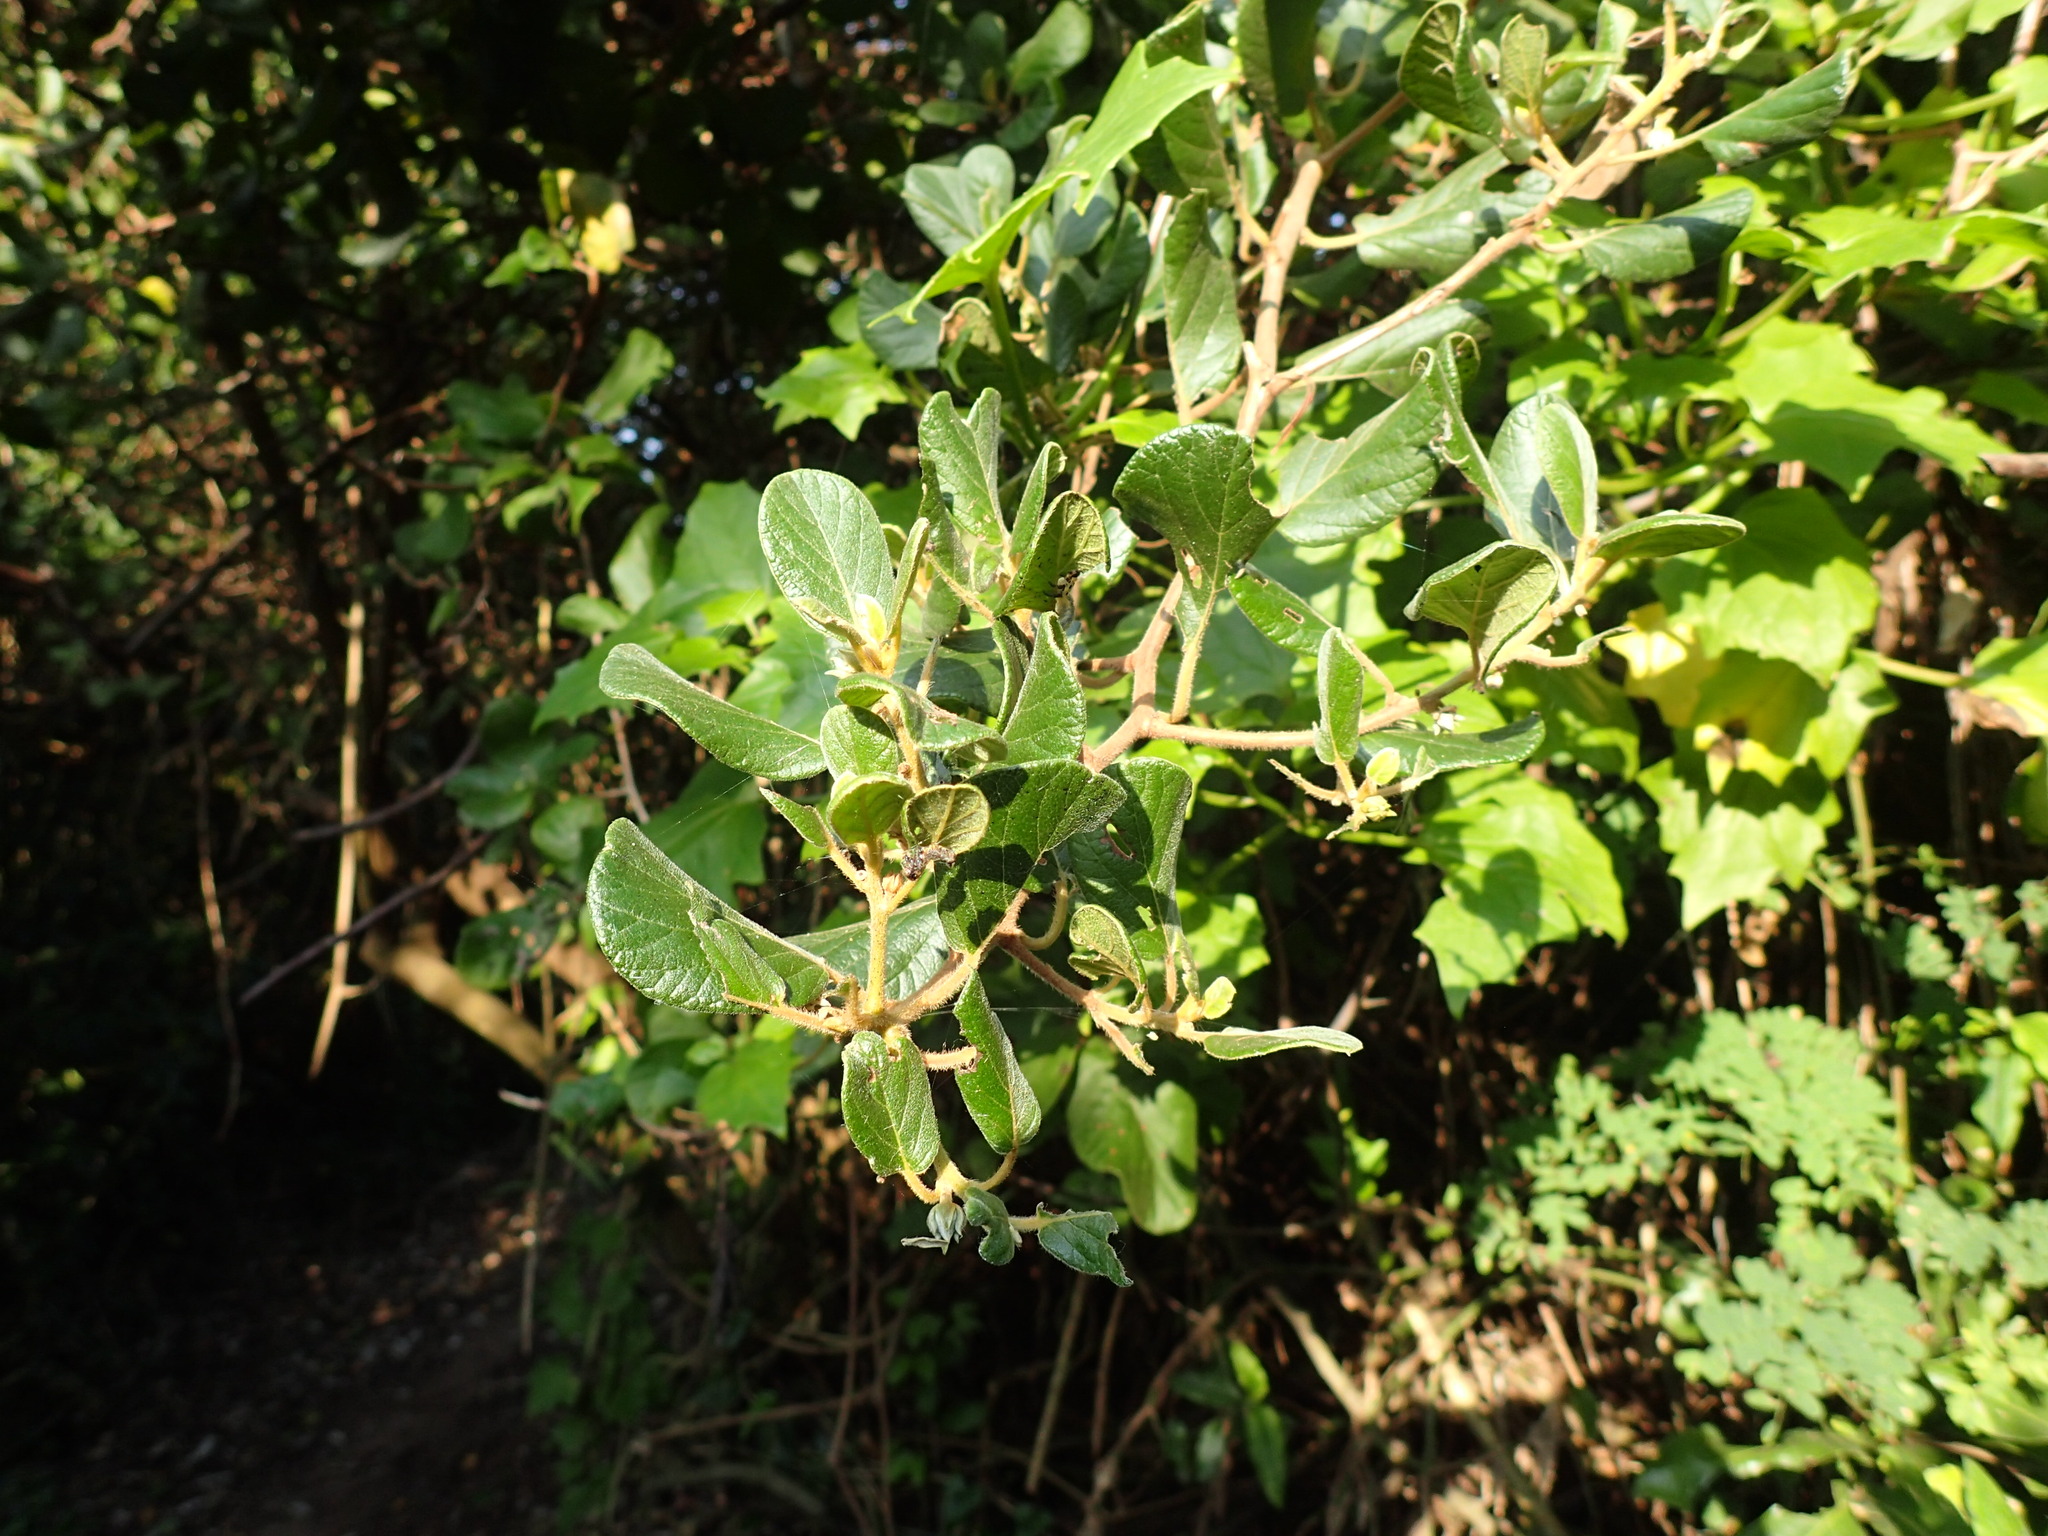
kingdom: Plantae
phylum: Tracheophyta
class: Magnoliopsida
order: Ericales
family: Ebenaceae
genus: Diospyros
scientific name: Diospyros villosa
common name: Hairy star-apple
